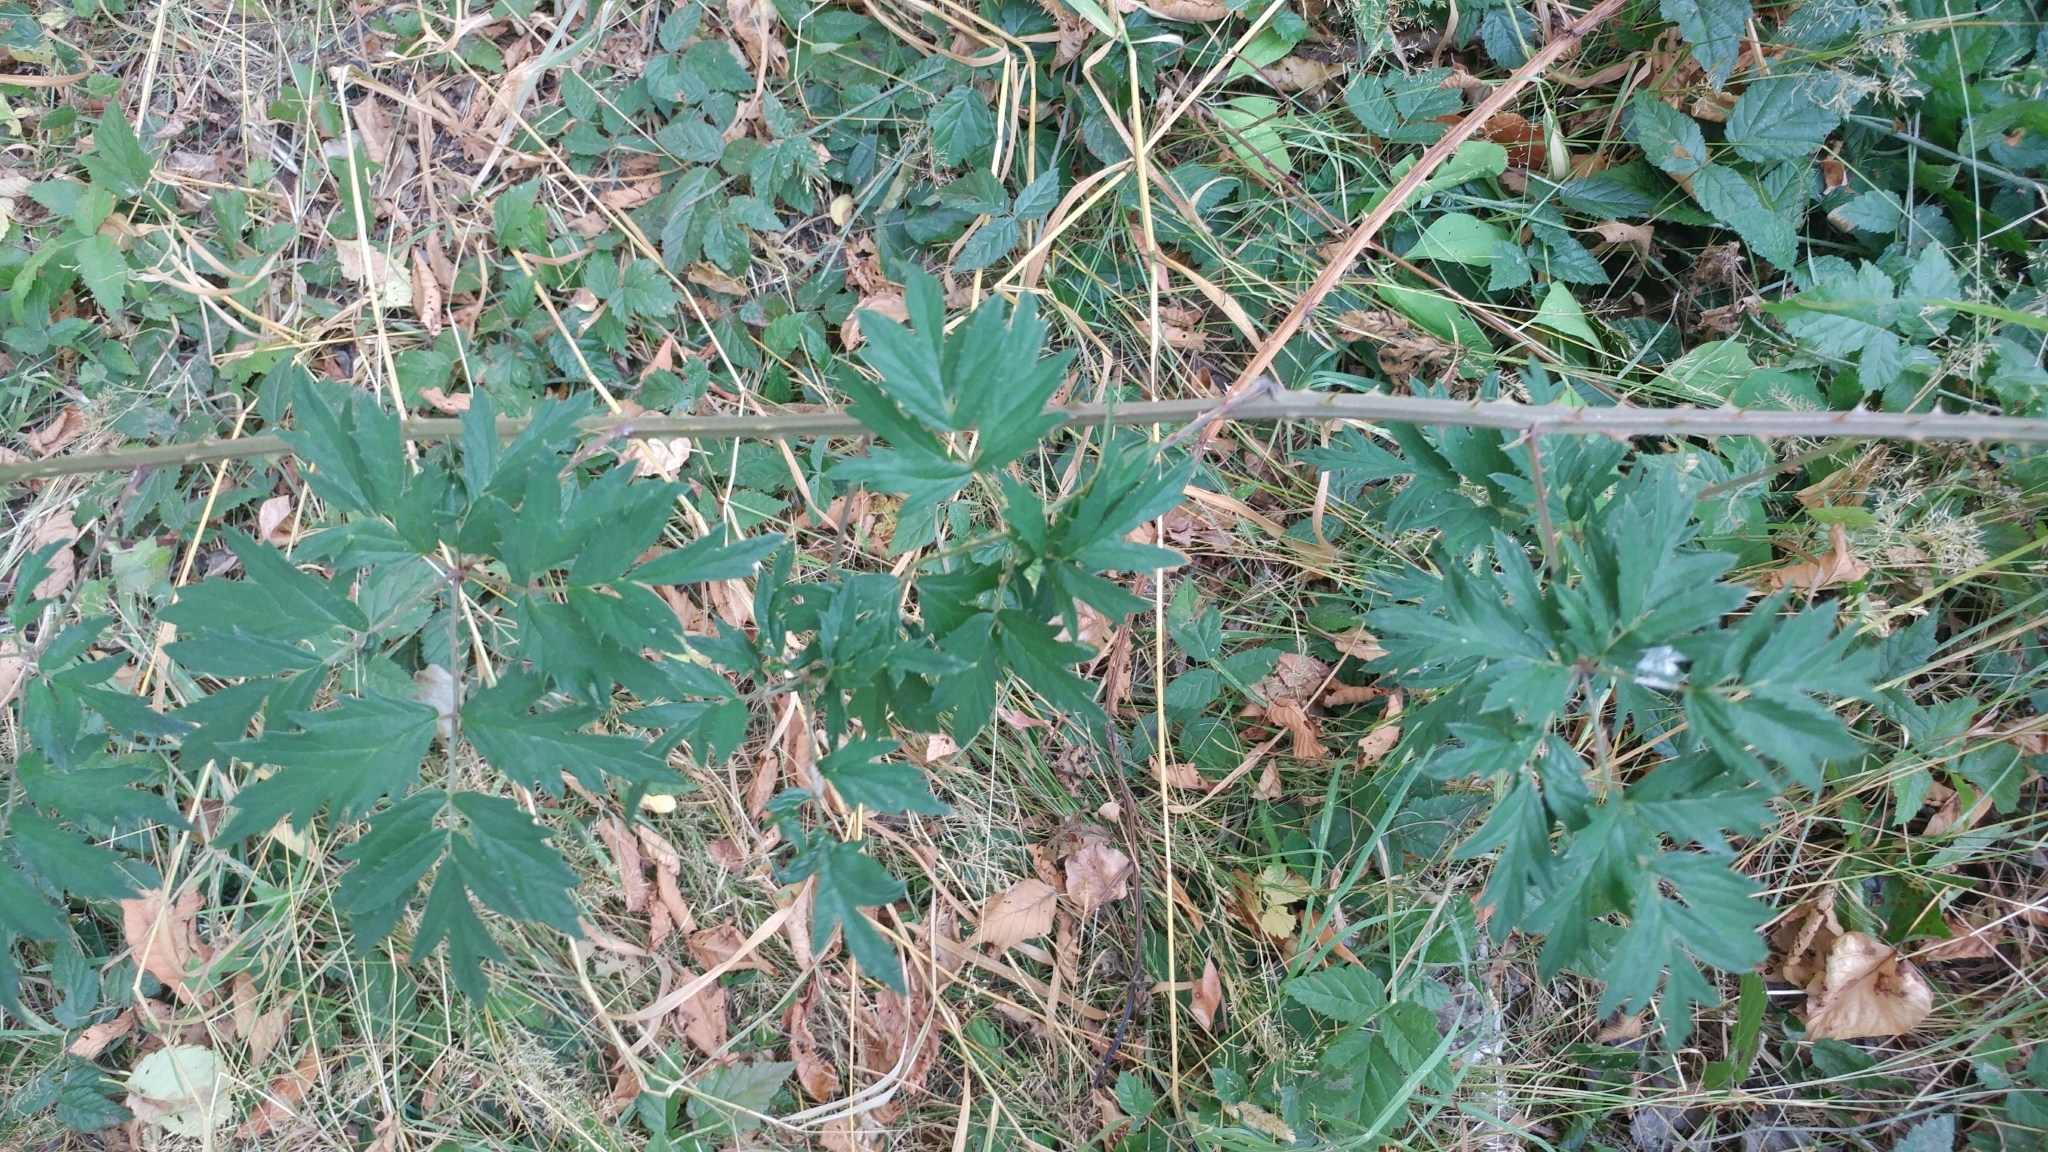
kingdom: Plantae
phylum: Tracheophyta
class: Magnoliopsida
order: Rosales
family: Rosaceae
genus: Rubus
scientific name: Rubus laciniatus
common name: Evergreen blackberry
